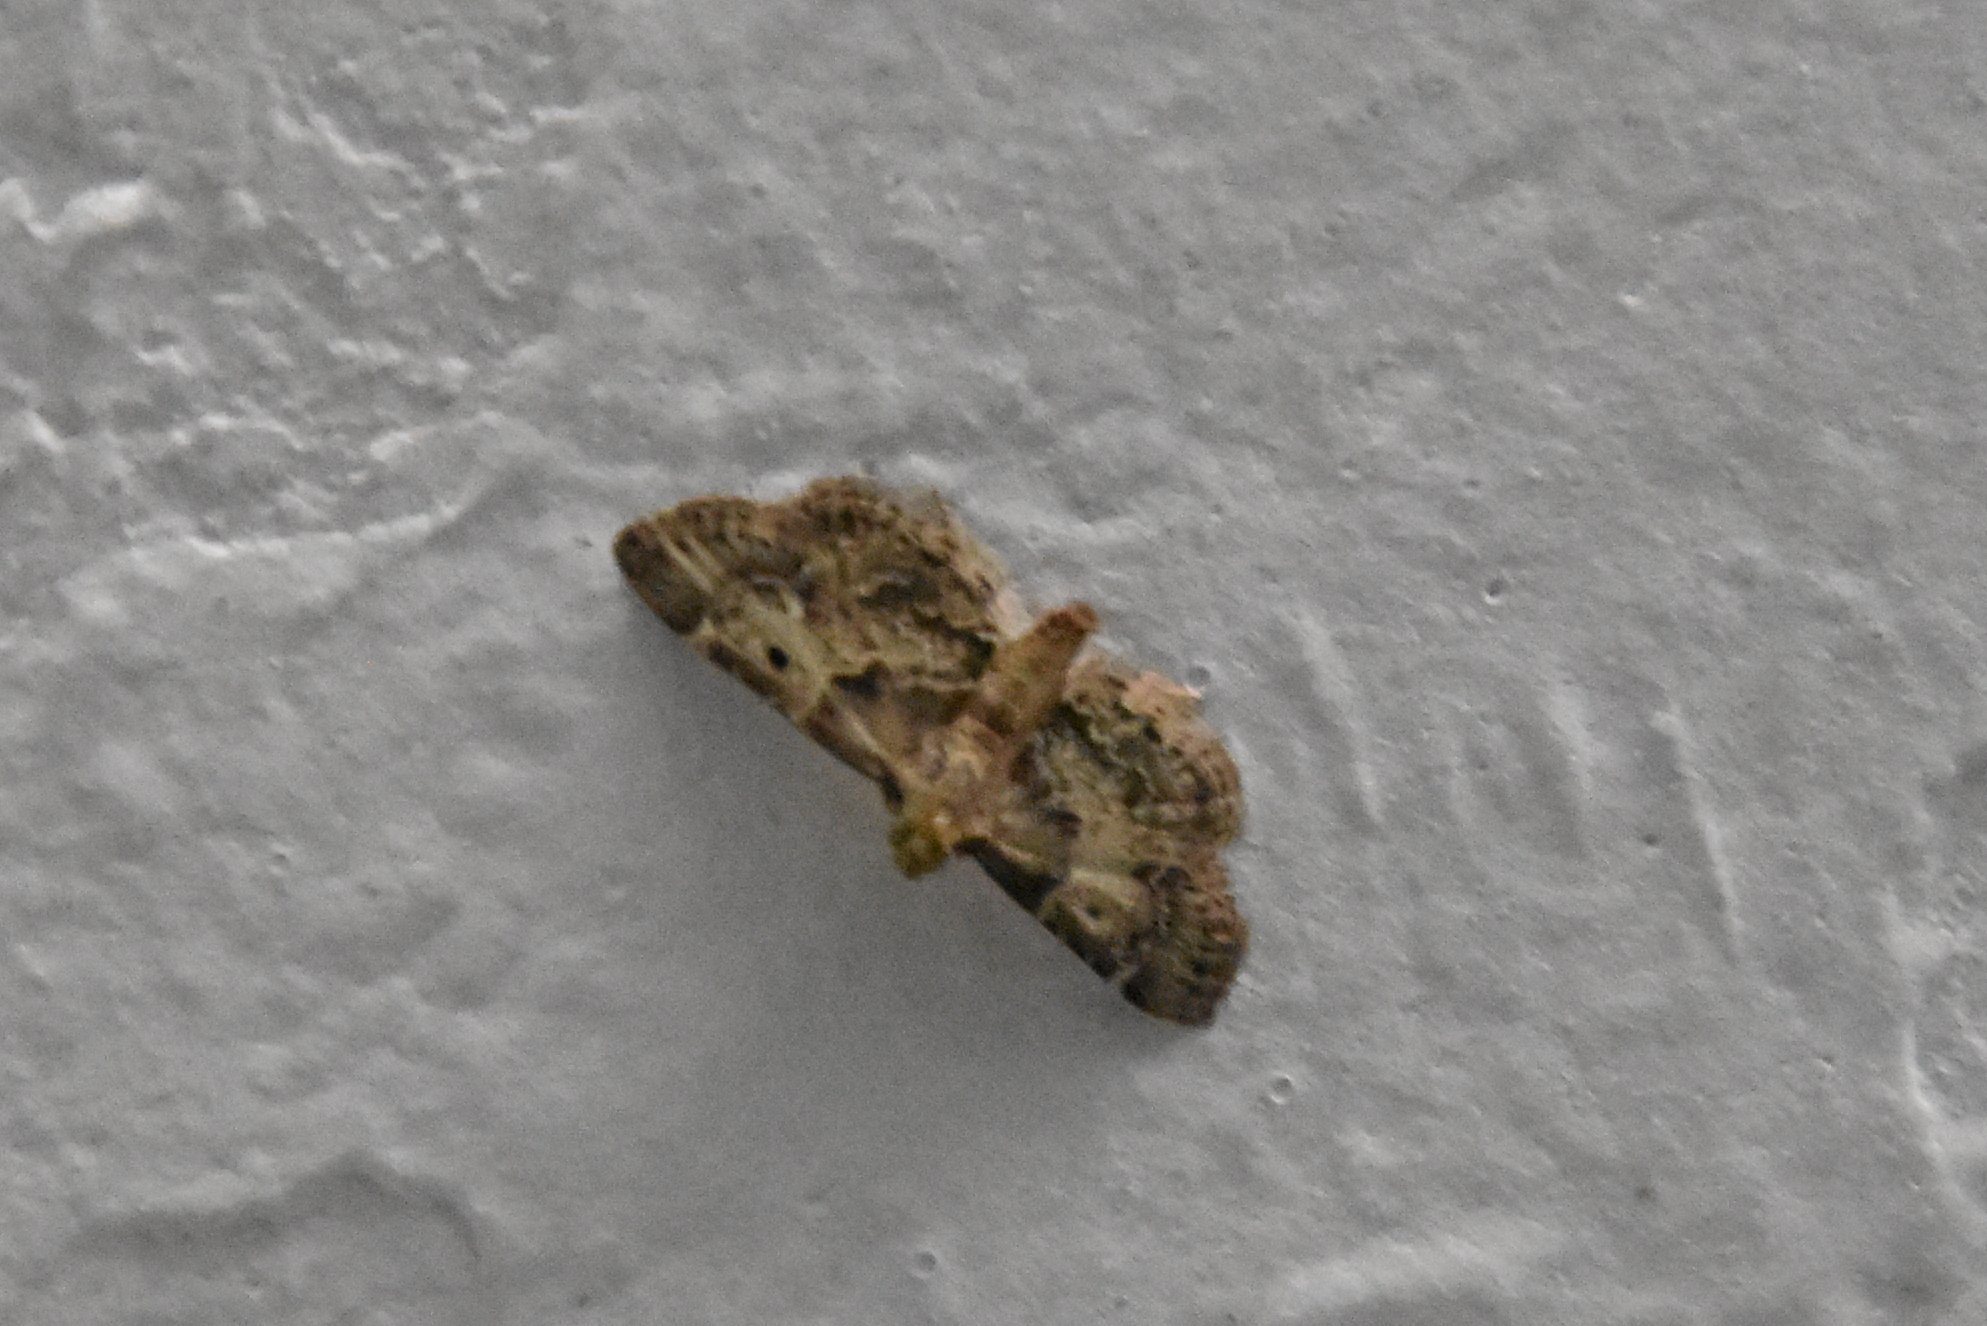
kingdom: Animalia
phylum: Arthropoda
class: Insecta
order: Lepidoptera
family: Pyralidae
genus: Pyralis
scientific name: Pyralis manihotalis
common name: Moth
